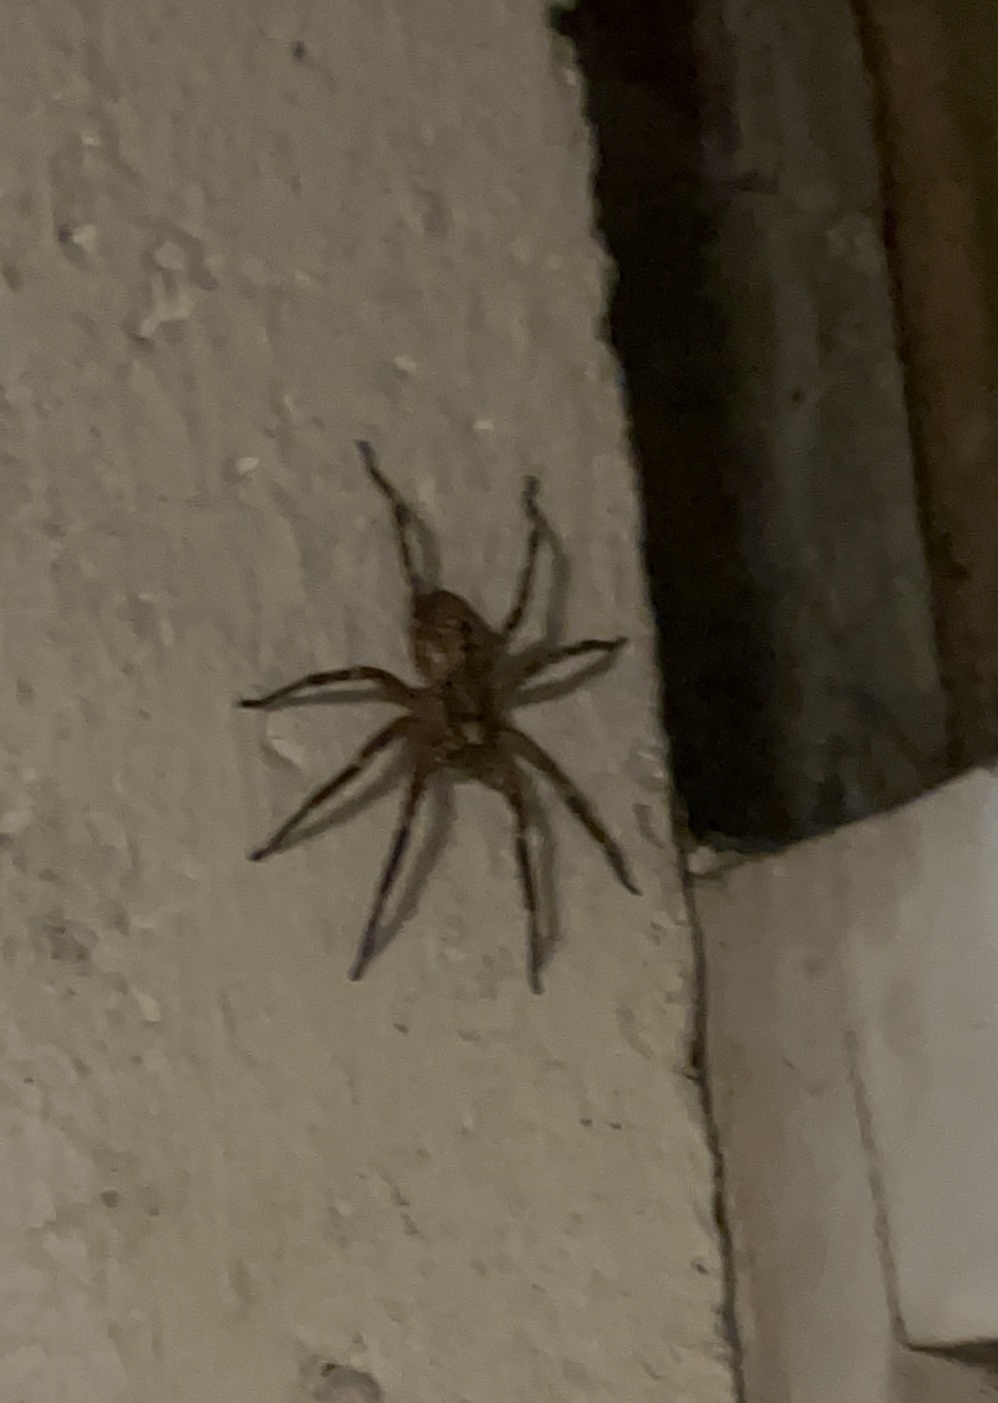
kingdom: Animalia
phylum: Arthropoda
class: Arachnida
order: Araneae
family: Zoropsidae
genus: Zoropsis
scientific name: Zoropsis spinimana
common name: Zoropsid spider
